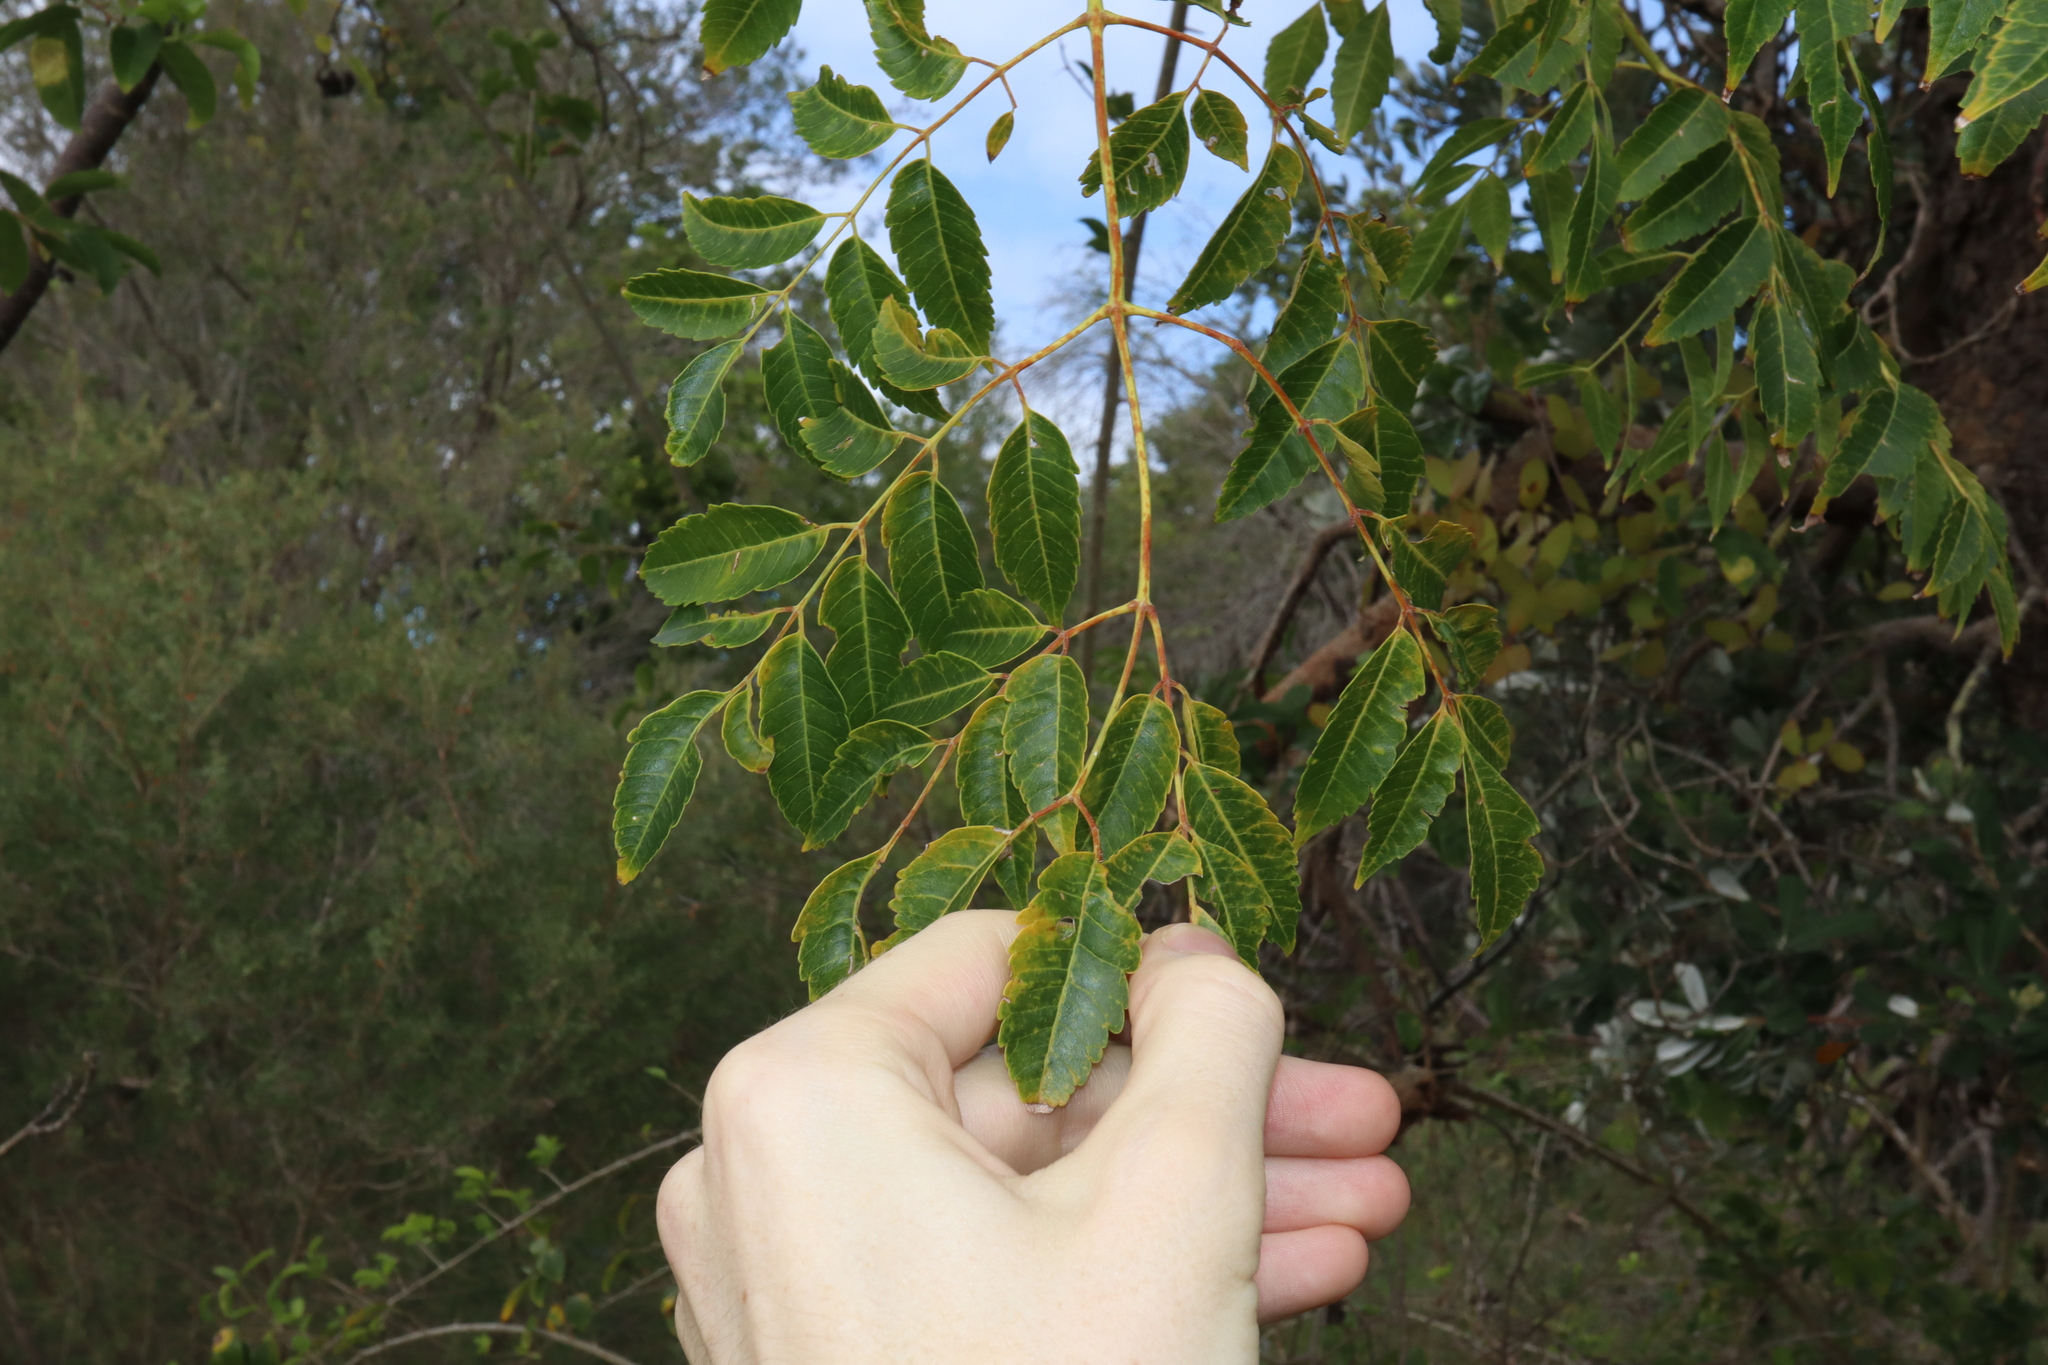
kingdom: Plantae
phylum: Tracheophyta
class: Magnoliopsida
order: Sapindales
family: Meliaceae
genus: Melia
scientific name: Melia azedarach
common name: Chinaberrytree
